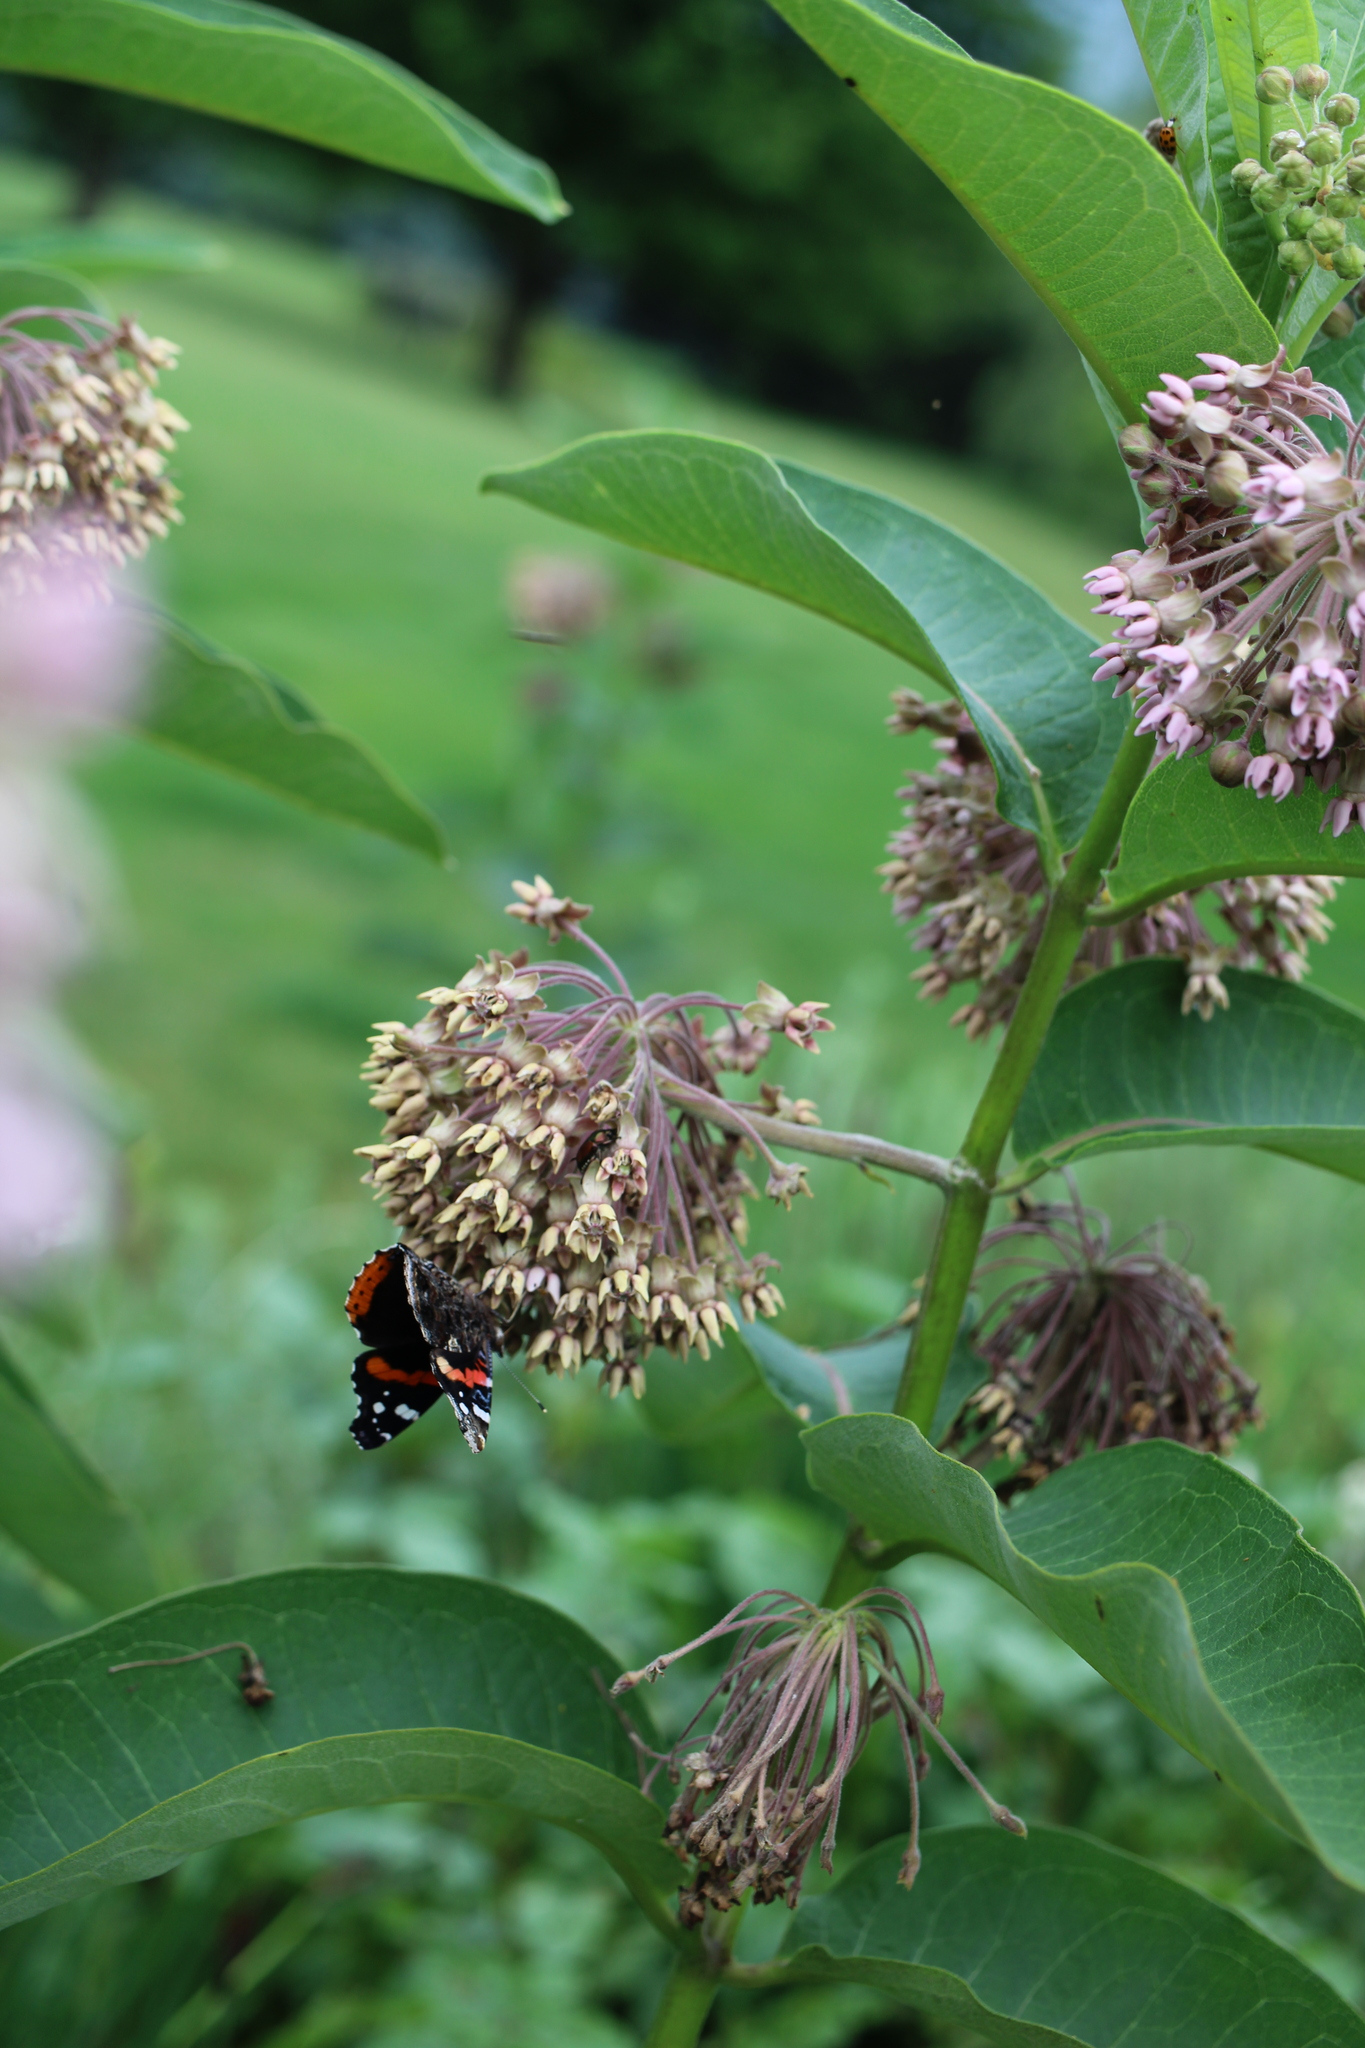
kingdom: Animalia
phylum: Arthropoda
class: Insecta
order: Lepidoptera
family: Nymphalidae
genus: Vanessa
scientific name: Vanessa atalanta
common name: Red admiral
